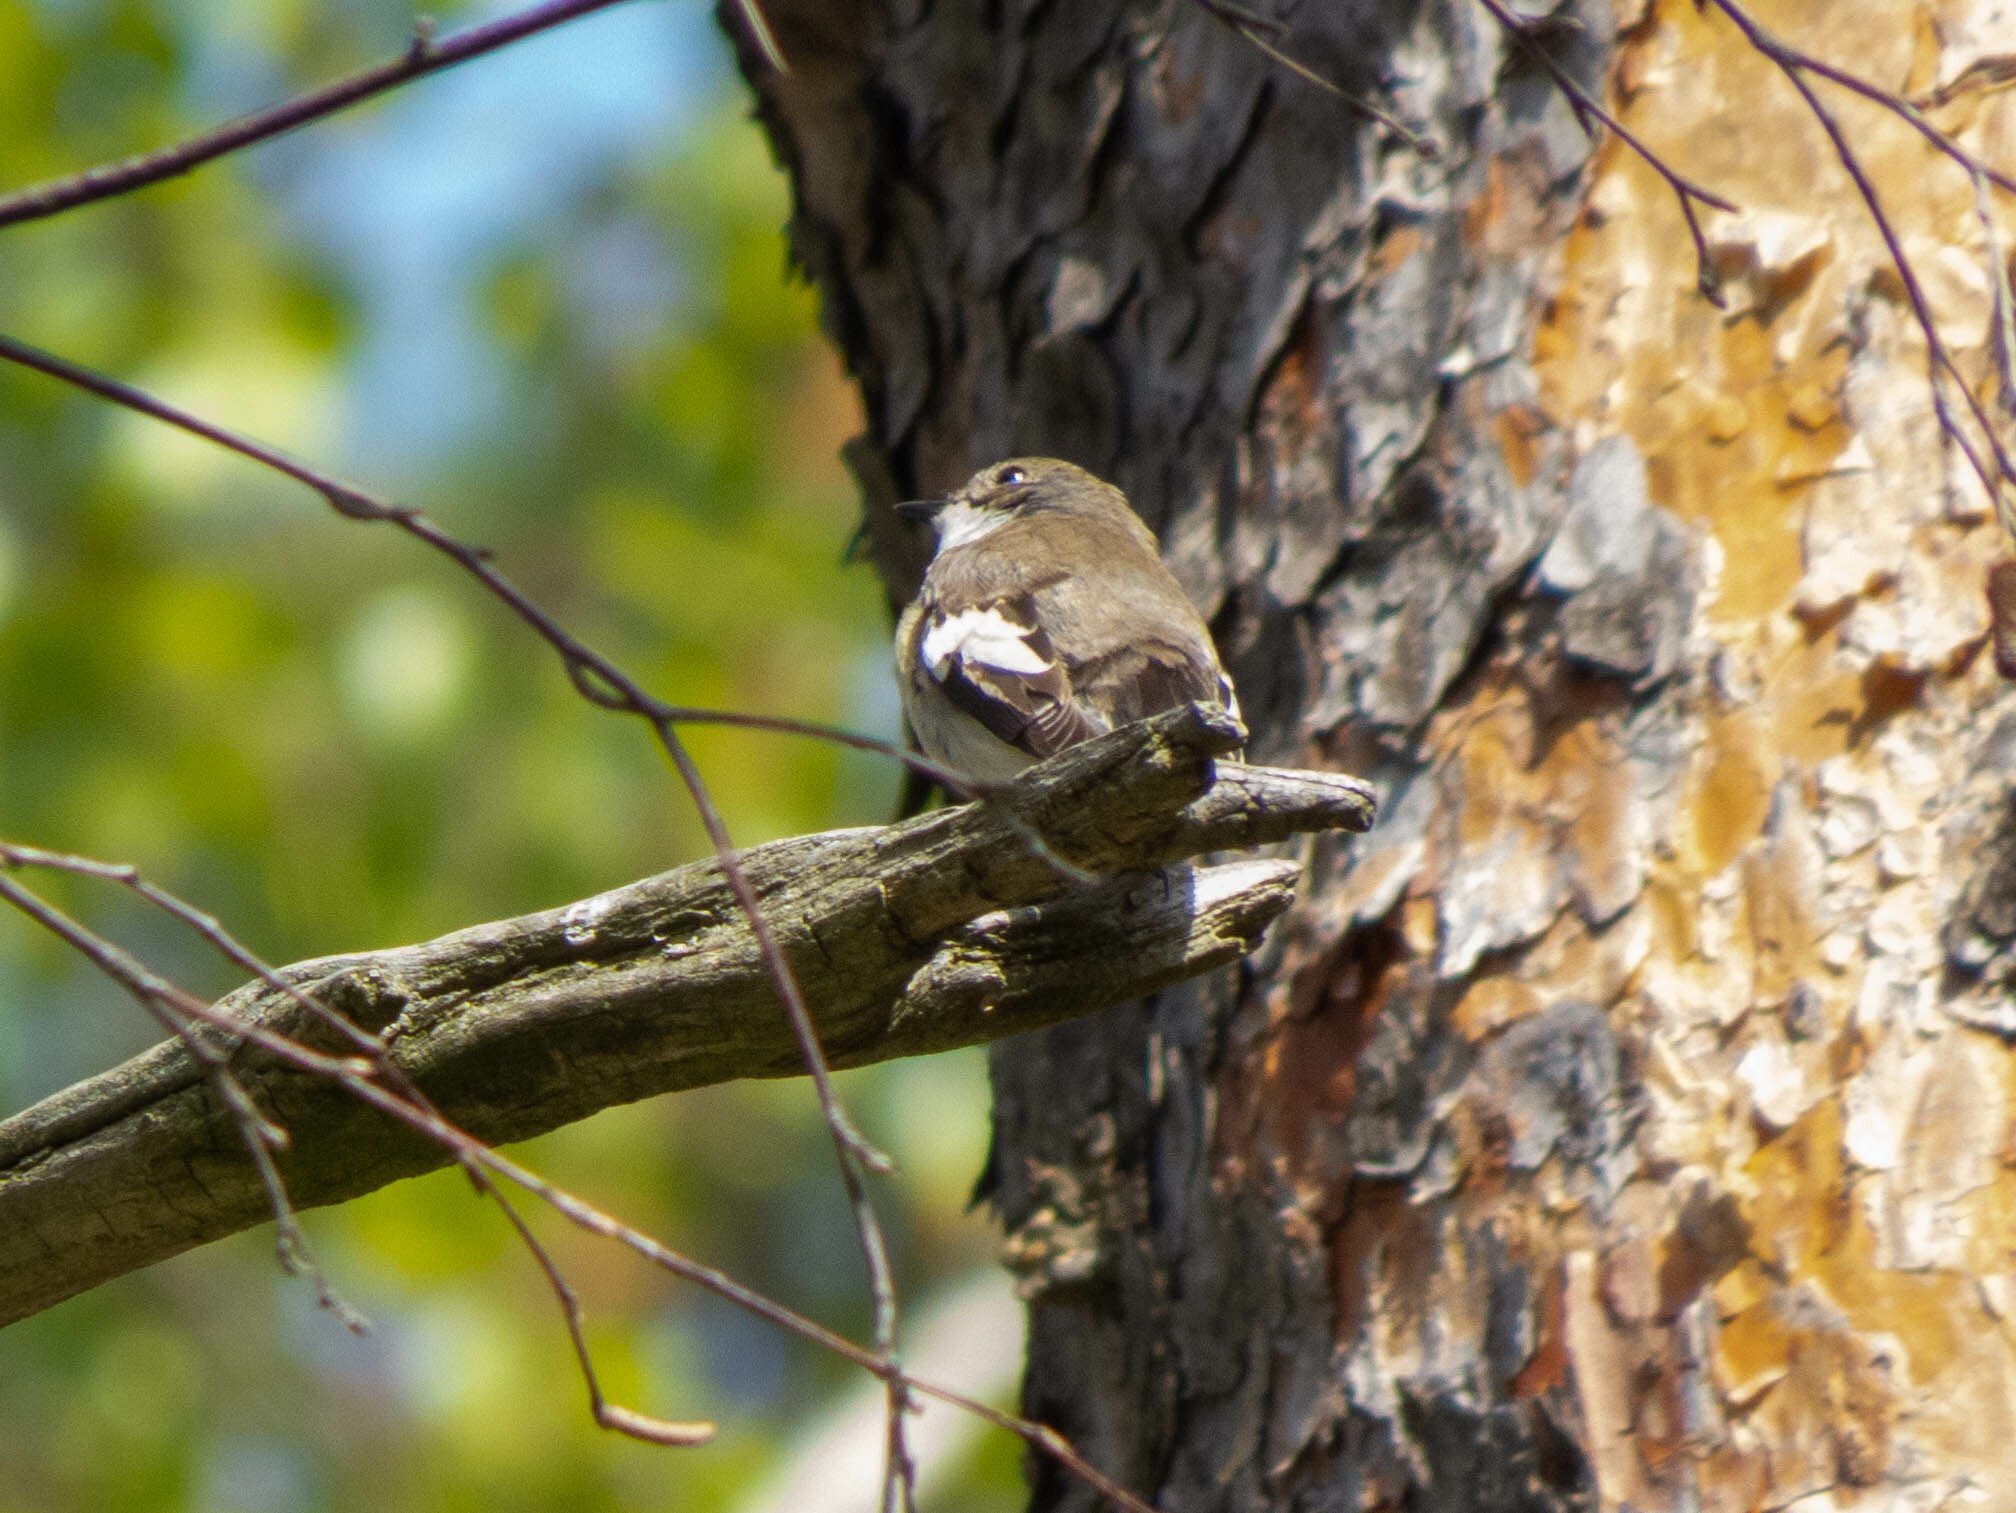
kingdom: Animalia
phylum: Chordata
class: Aves
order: Passeriformes
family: Muscicapidae
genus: Ficedula
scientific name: Ficedula hypoleuca
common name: European pied flycatcher
